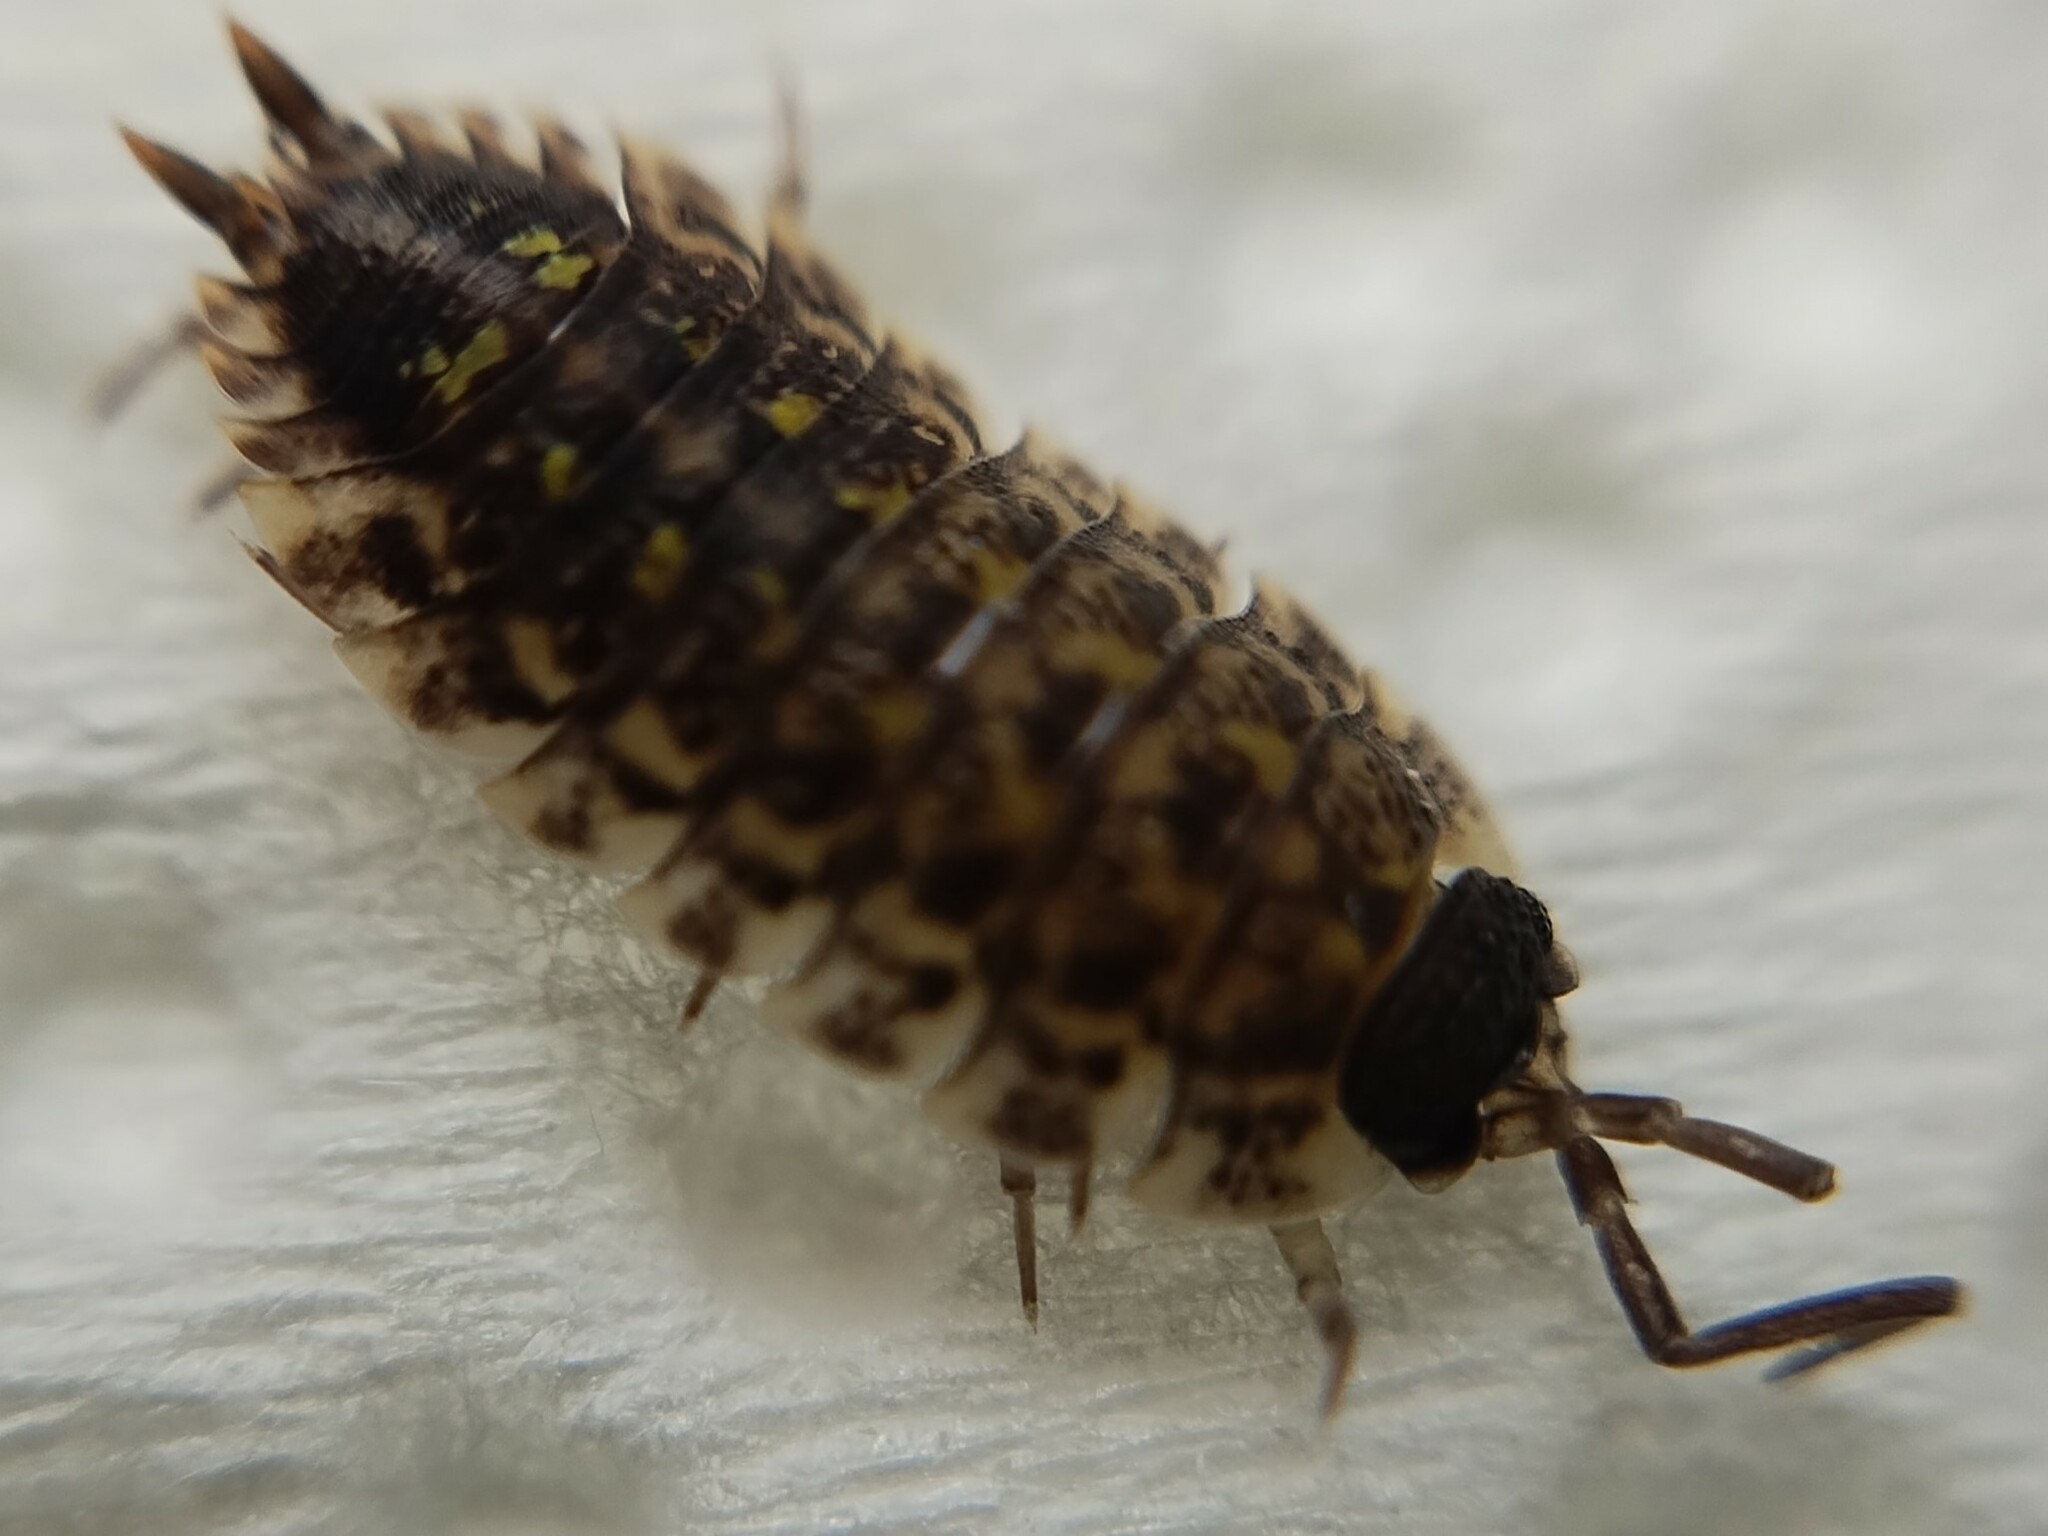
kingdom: Animalia
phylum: Arthropoda
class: Malacostraca
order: Isopoda
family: Porcellionidae
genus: Porcellio
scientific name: Porcellio spinicornis
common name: Painted woodlouse
